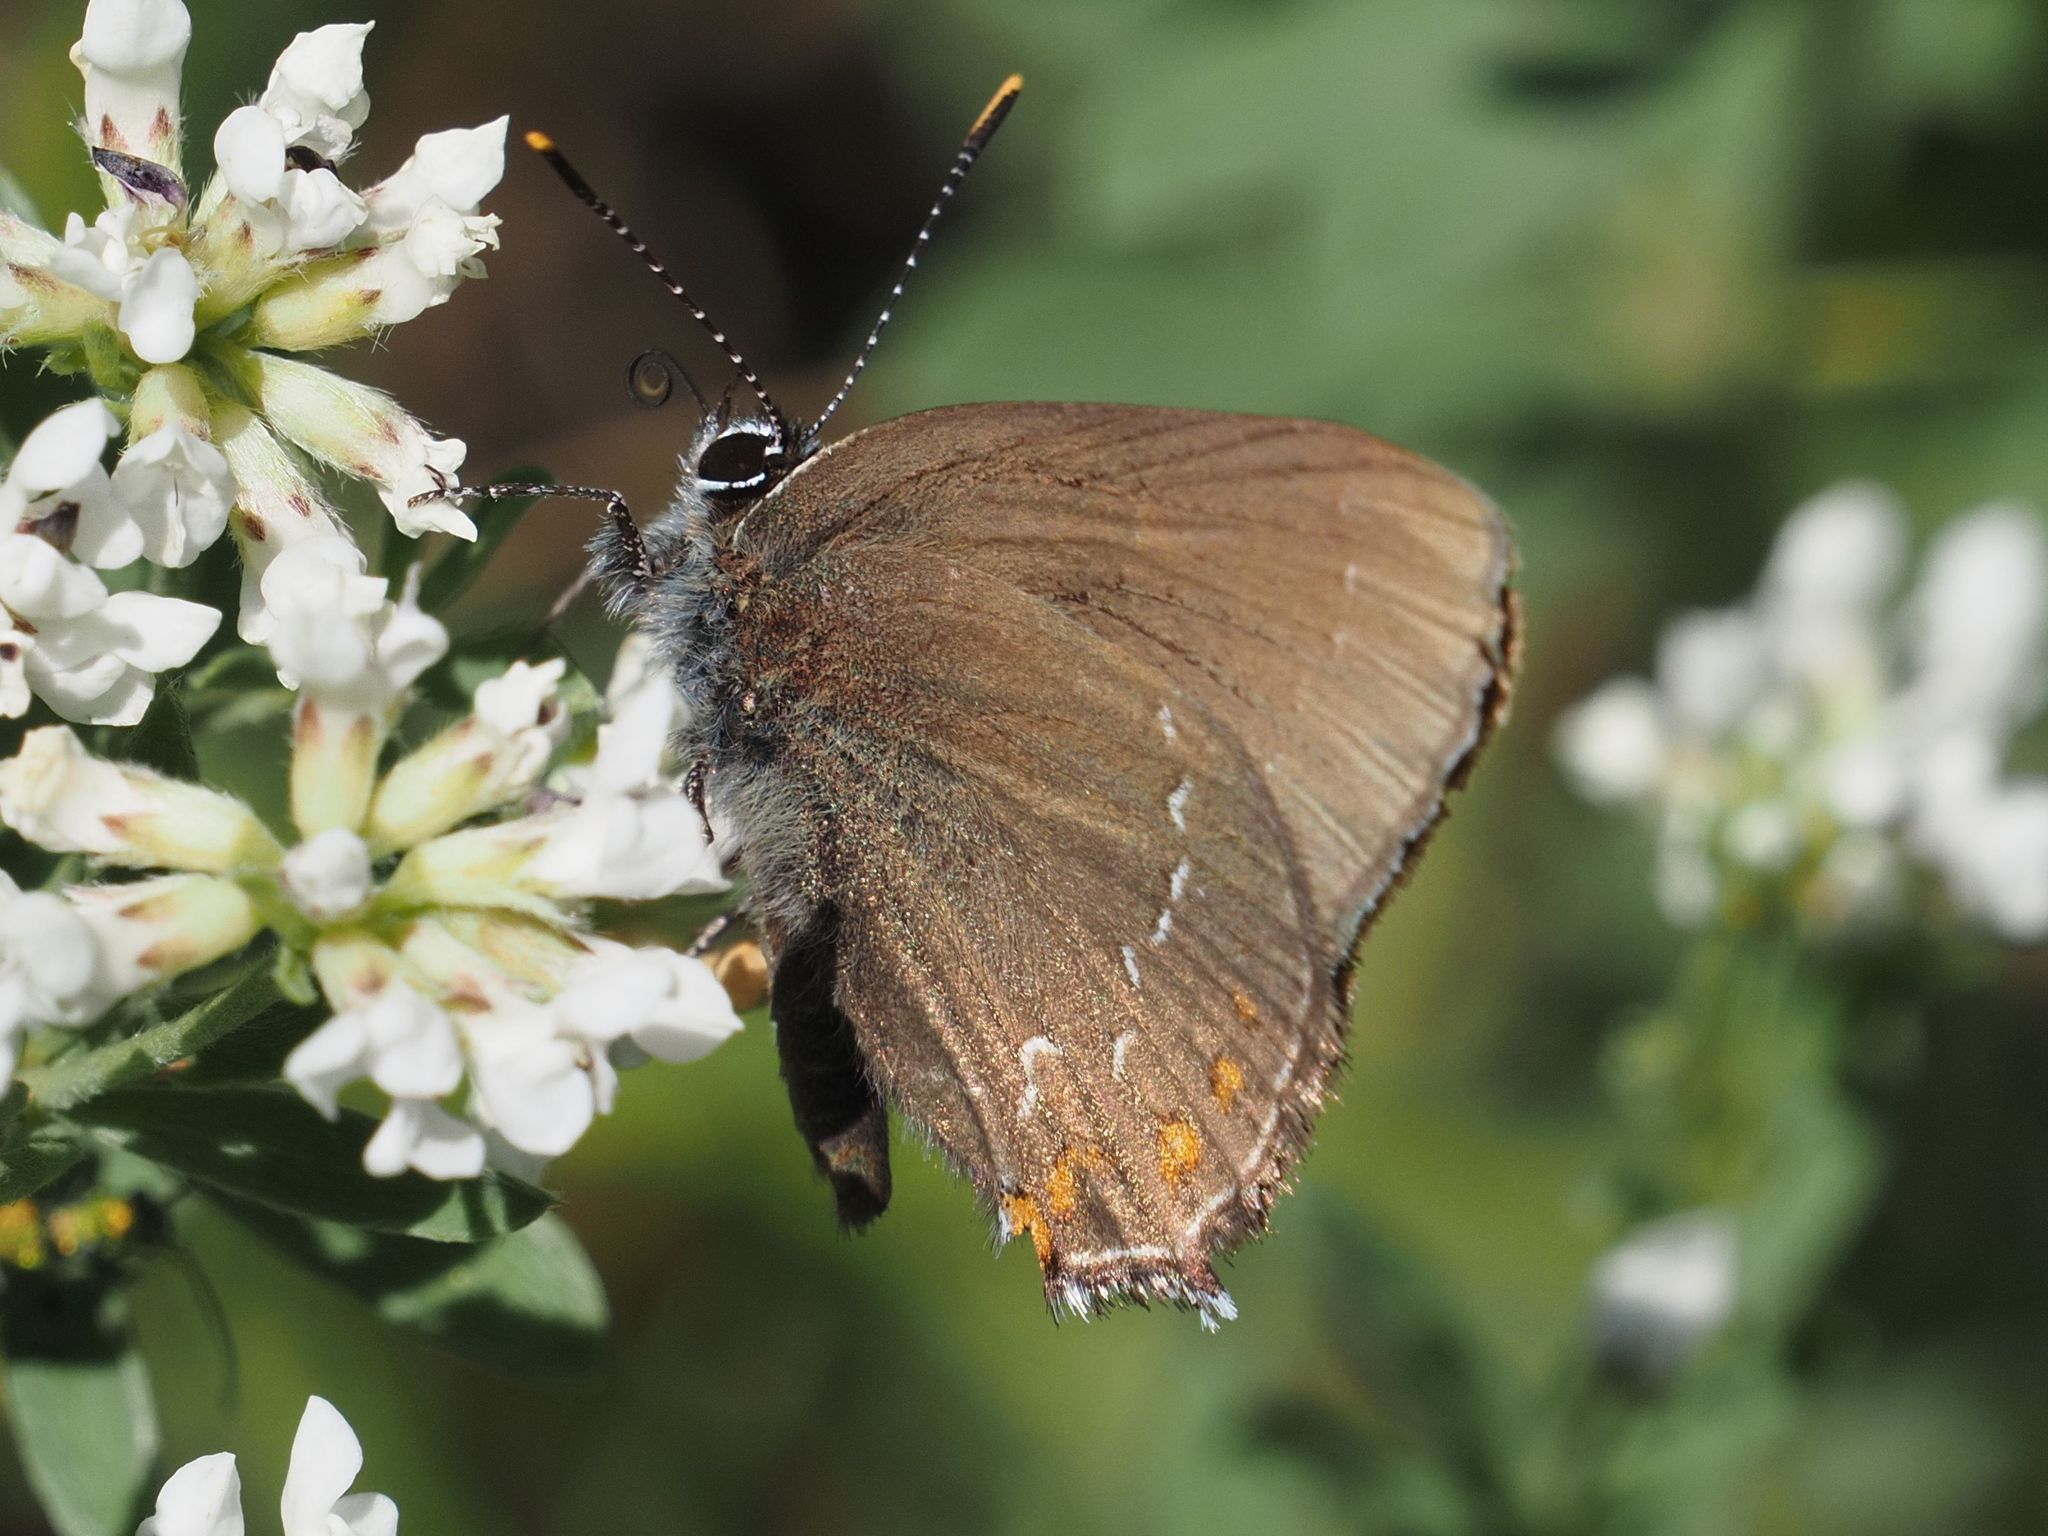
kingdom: Animalia
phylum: Arthropoda
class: Insecta
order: Lepidoptera
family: Lycaenidae
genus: Nordmannia
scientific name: Nordmannia ilicis
